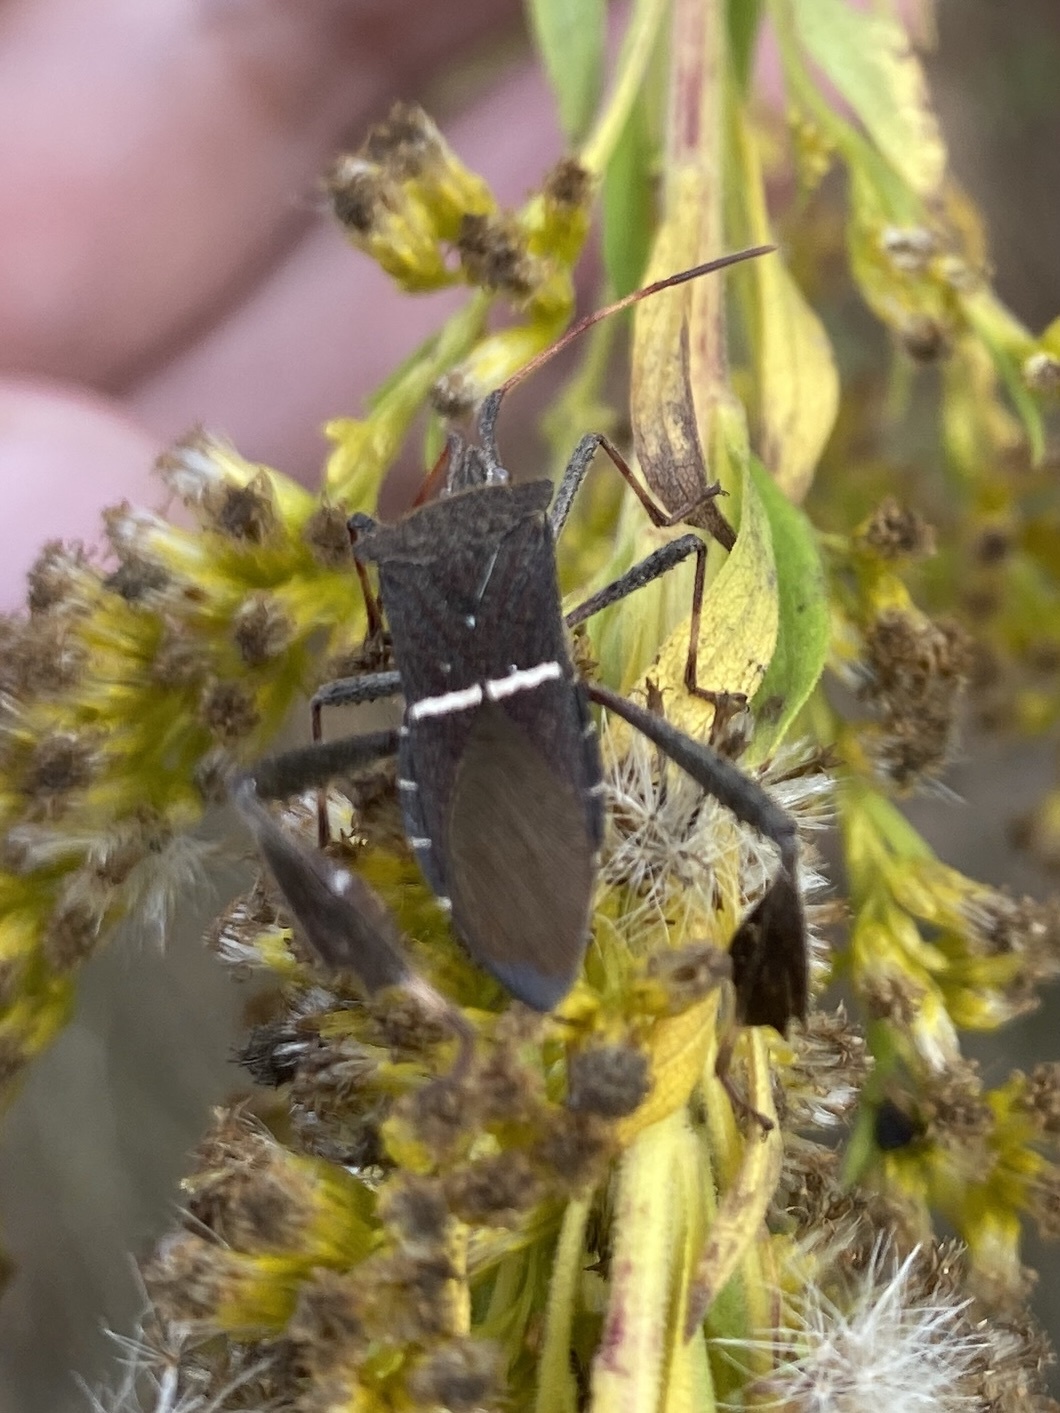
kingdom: Animalia
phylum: Arthropoda
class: Insecta
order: Hemiptera
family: Coreidae
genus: Leptoglossus
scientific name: Leptoglossus phyllopus
